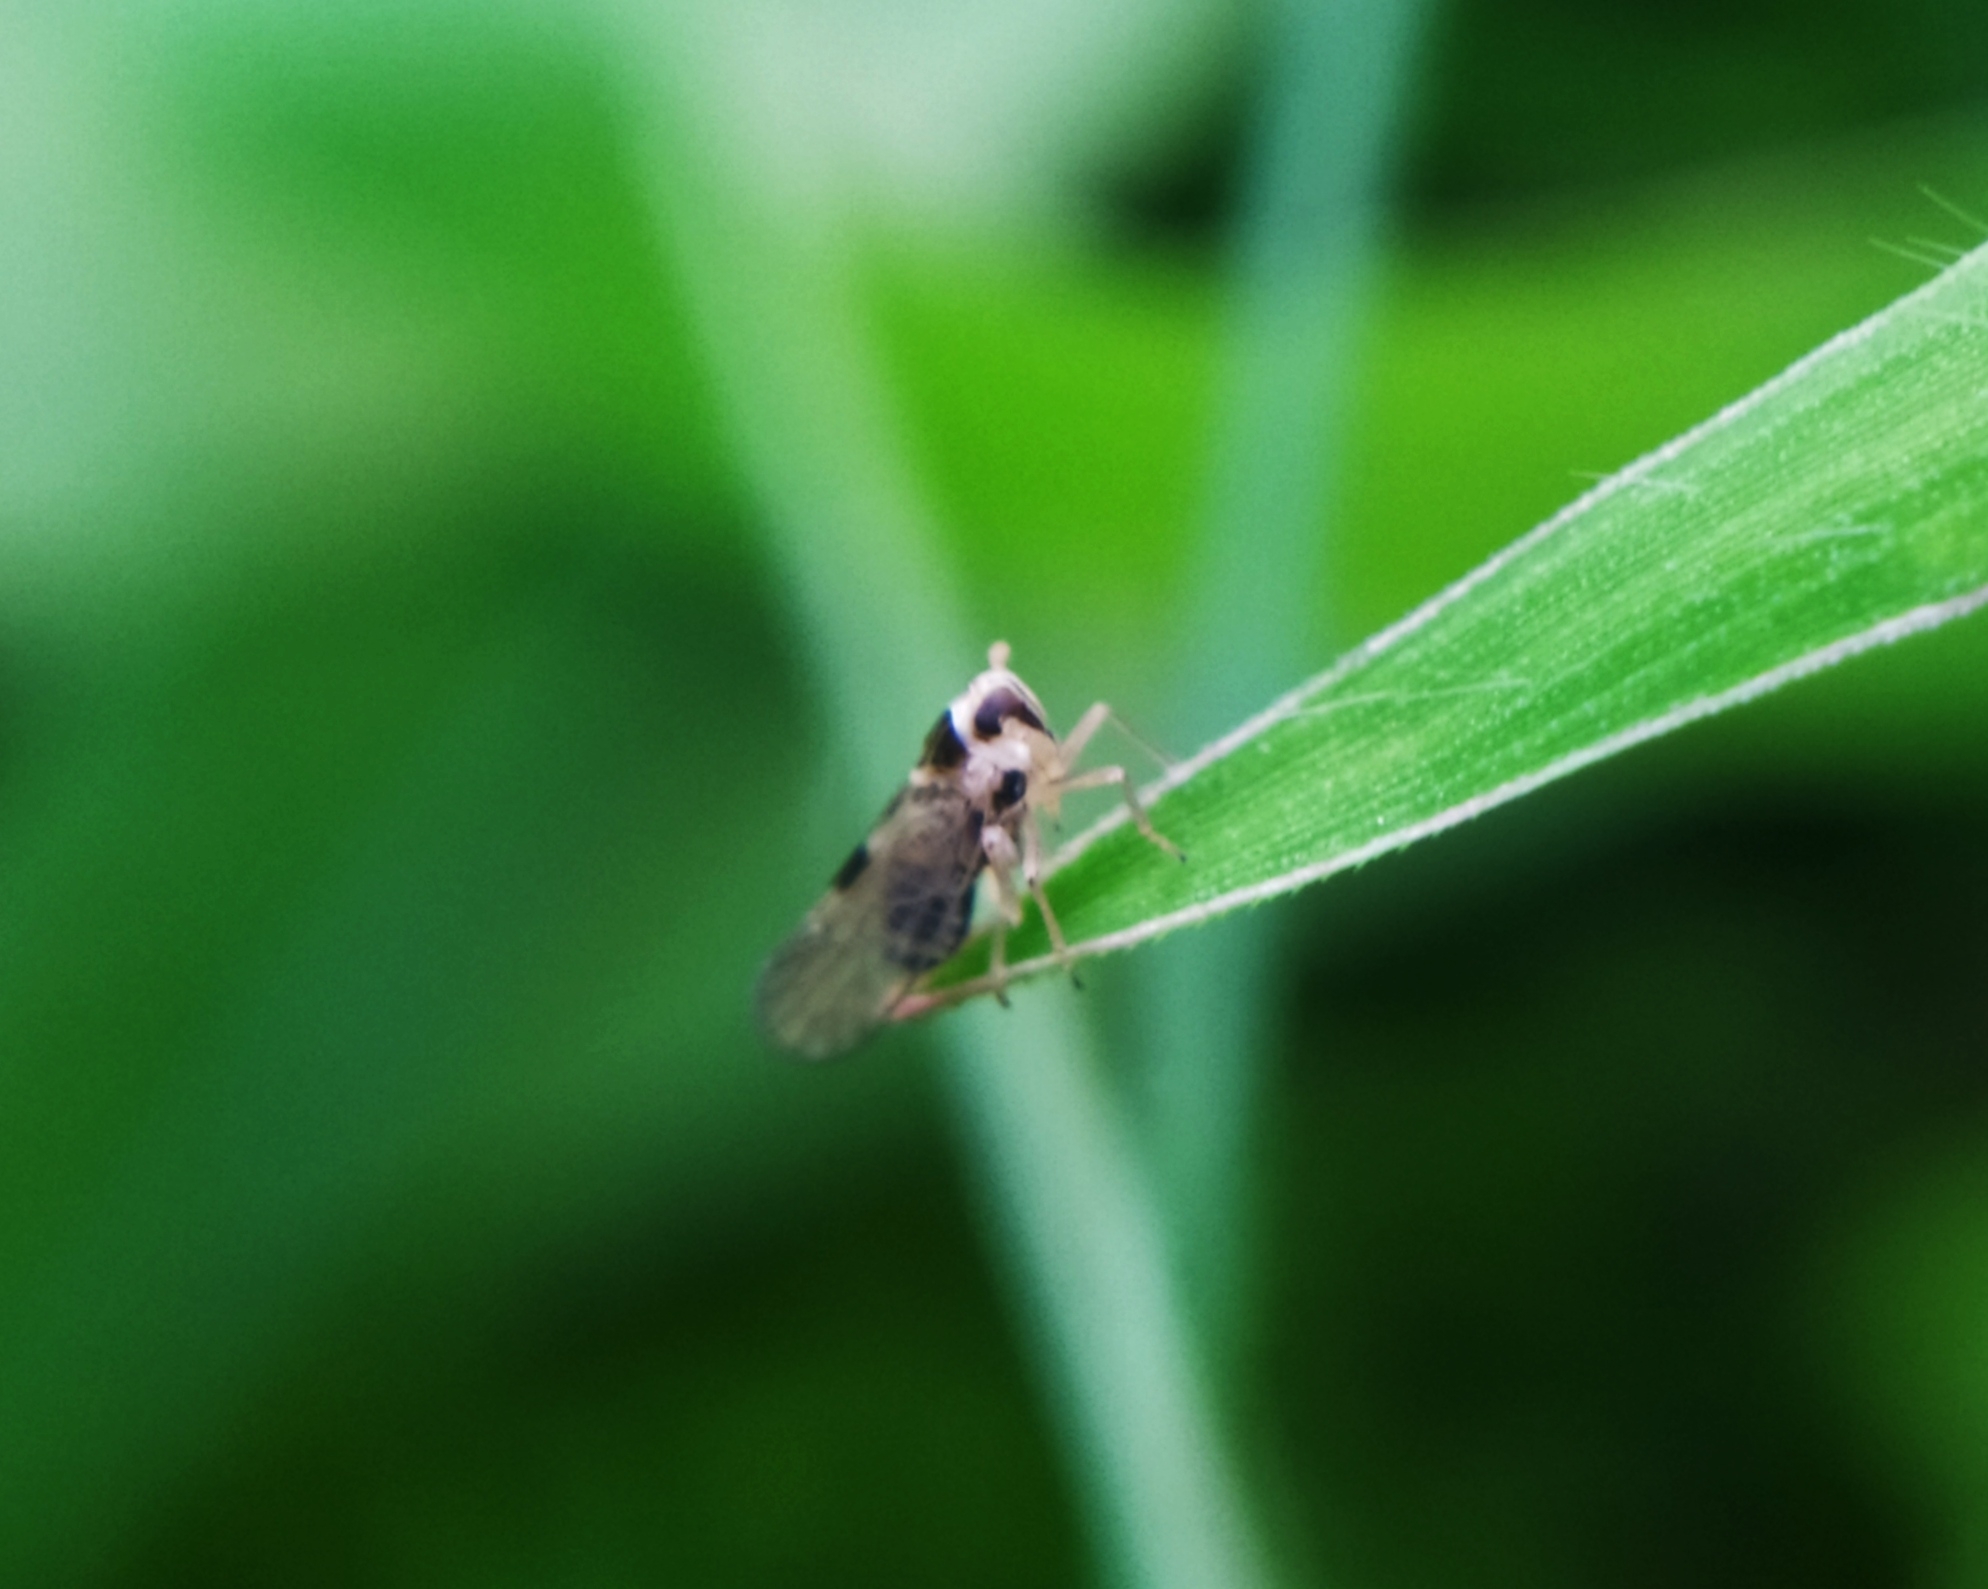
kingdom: Animalia
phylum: Arthropoda
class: Insecta
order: Hemiptera
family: Delphacidae
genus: Laodelphax
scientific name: Laodelphax striatellus
